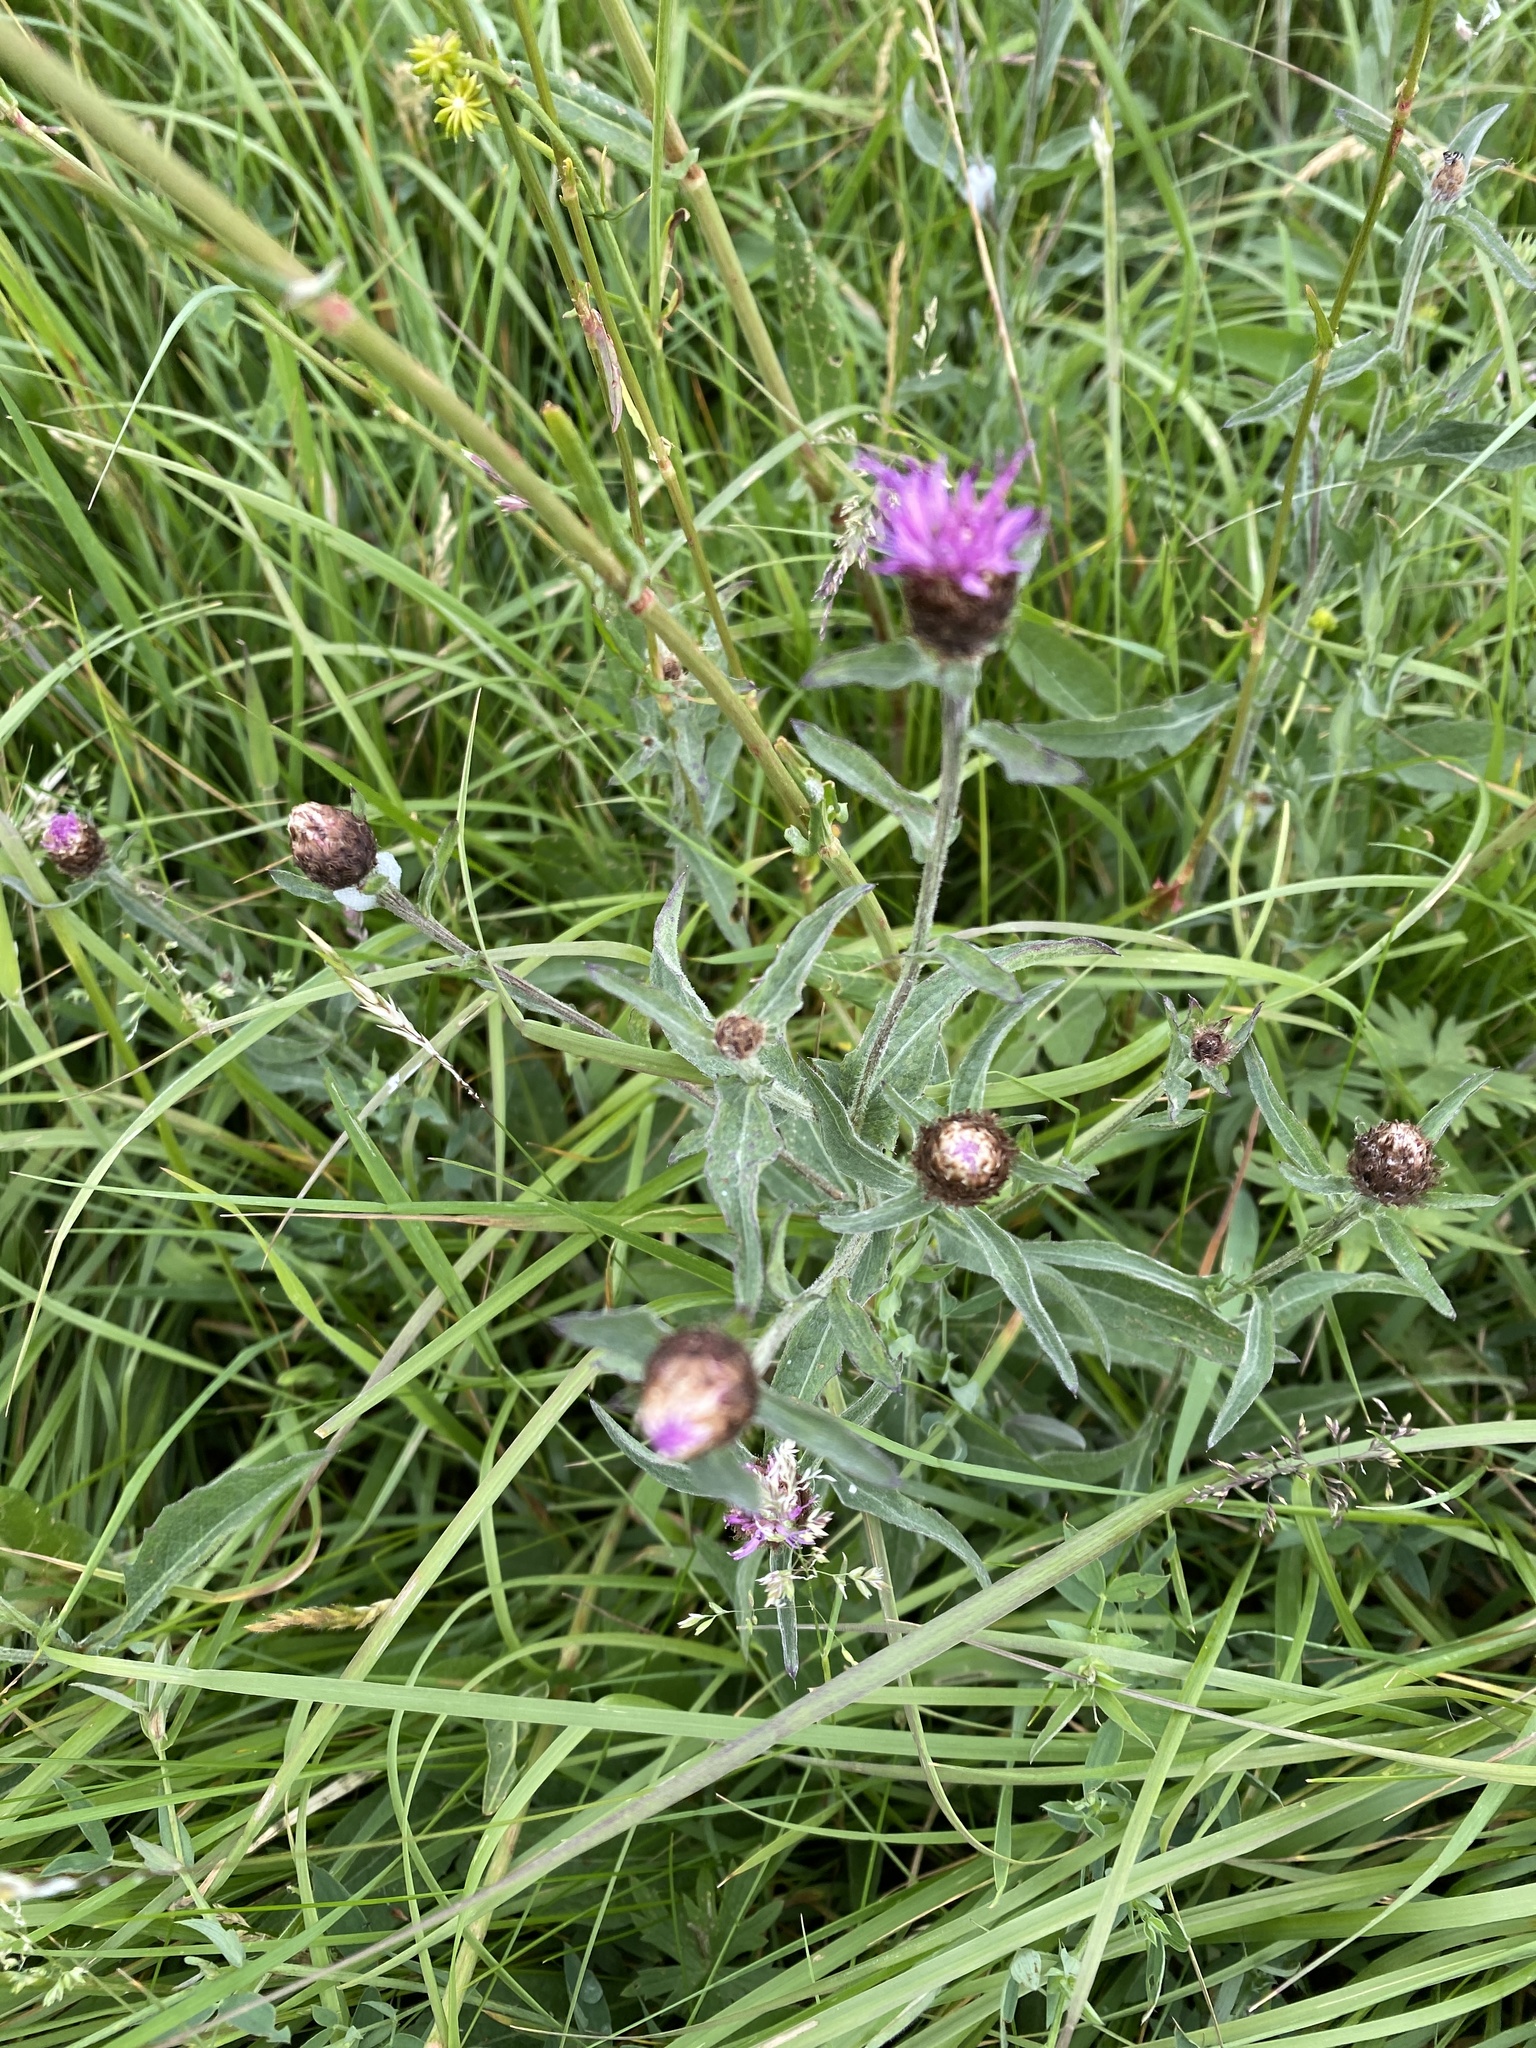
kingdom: Plantae
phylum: Tracheophyta
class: Magnoliopsida
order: Asterales
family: Asteraceae
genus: Centaurea
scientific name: Centaurea nigra
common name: Lesser knapweed
